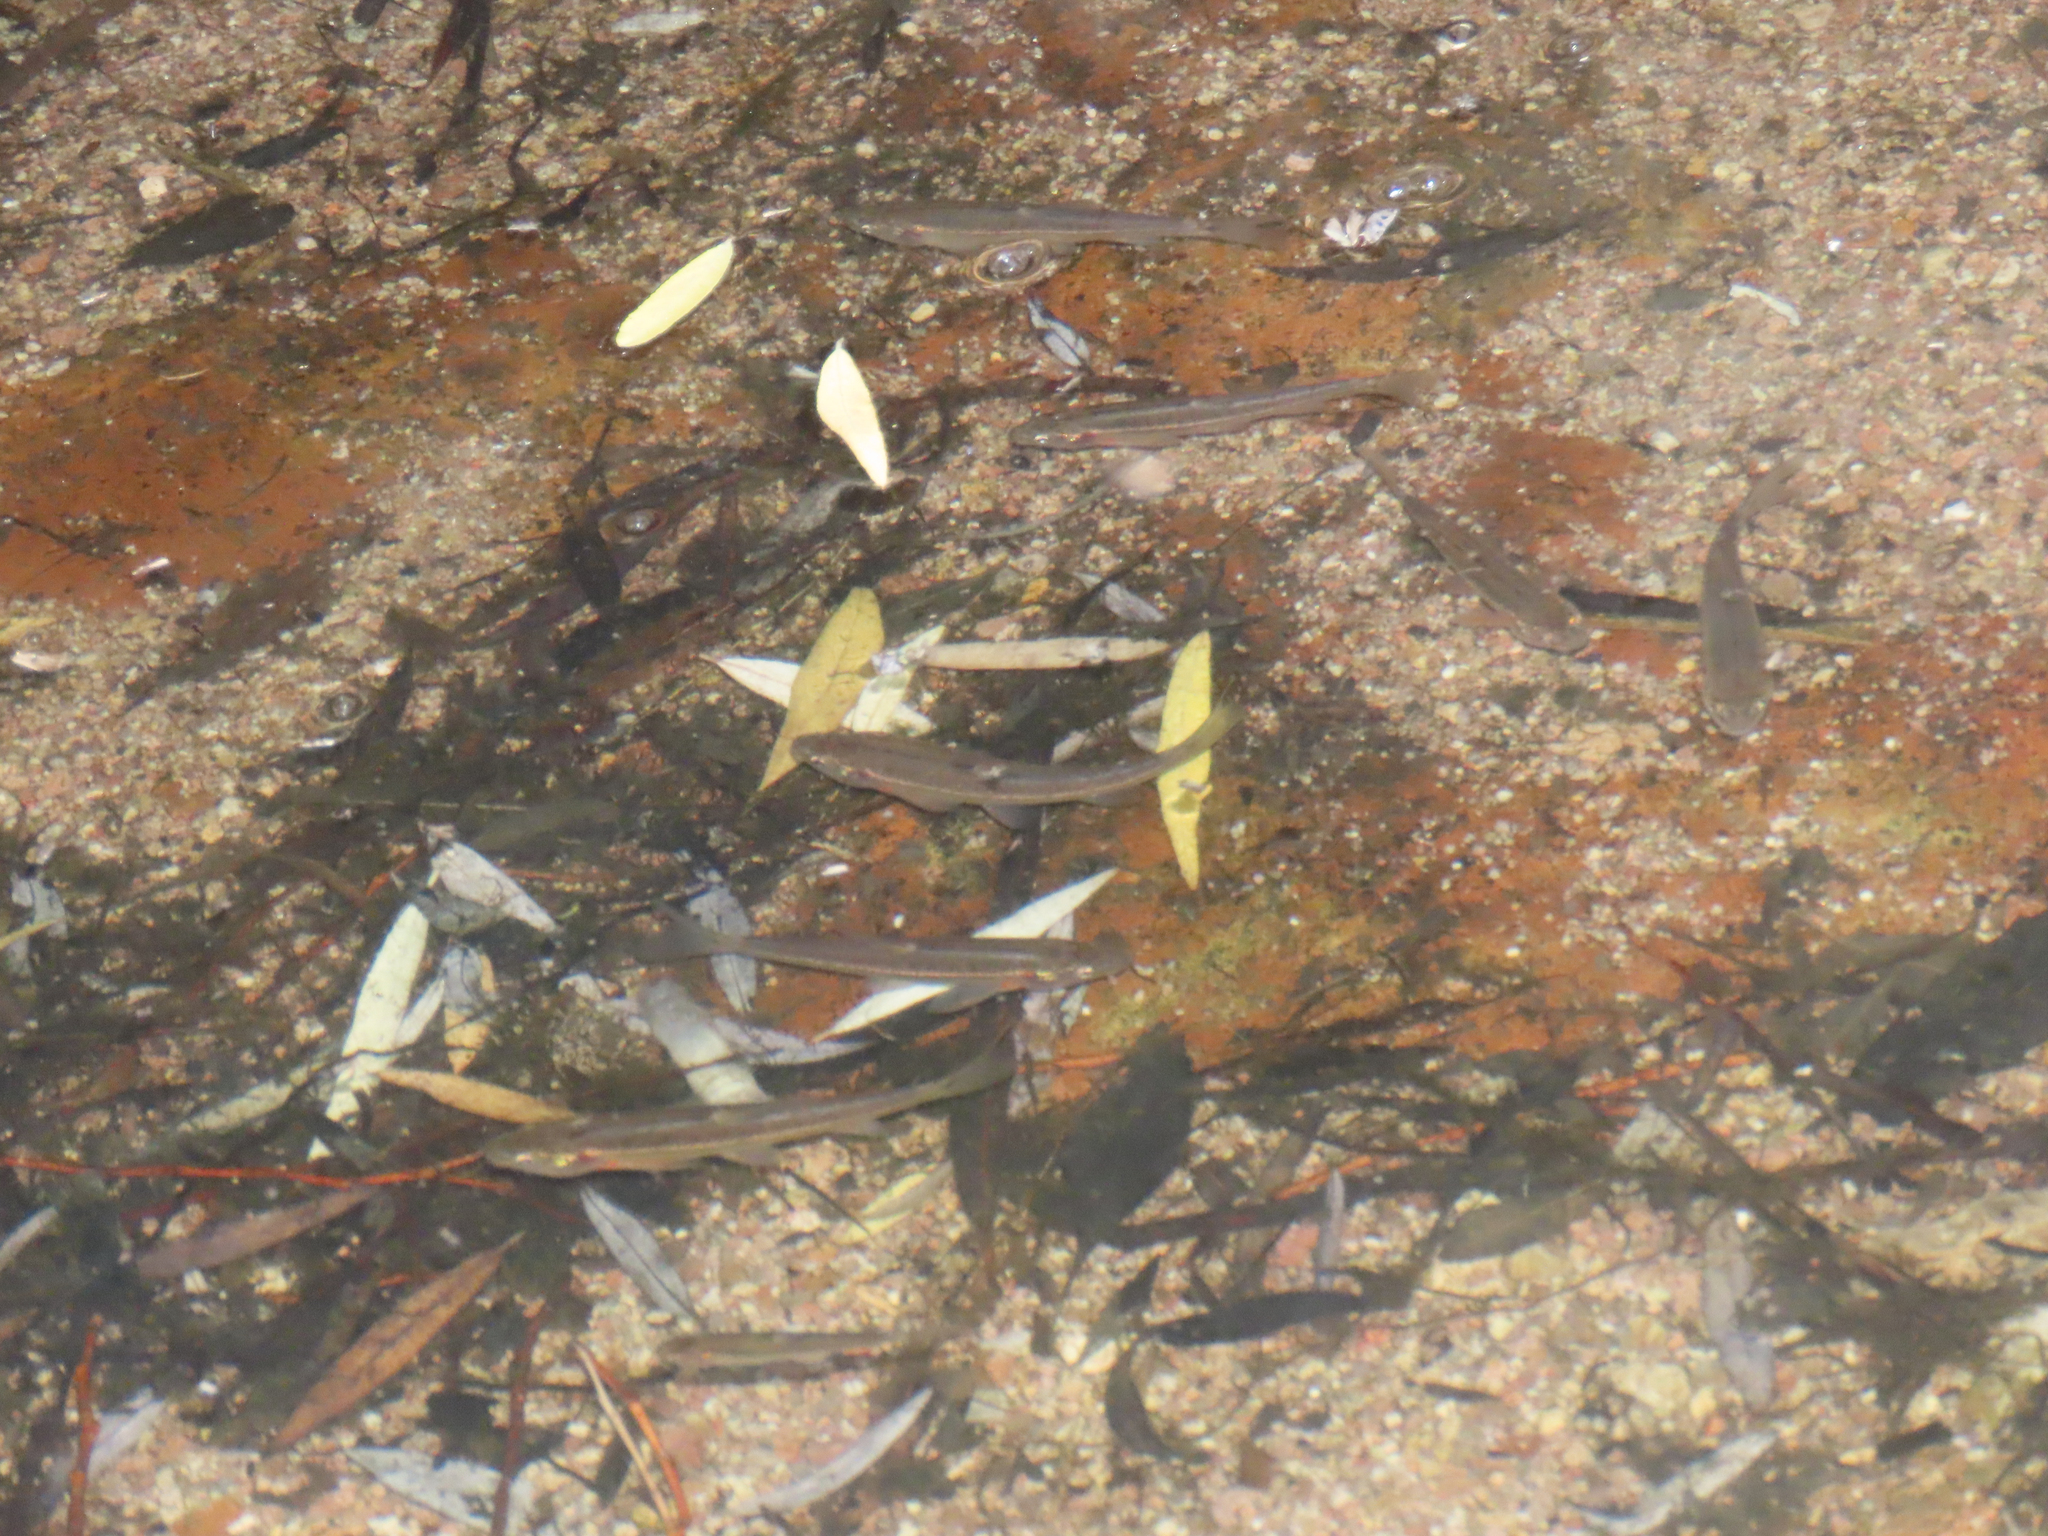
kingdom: Animalia
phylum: Chordata
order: Cypriniformes
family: Cyprinidae
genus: Gila
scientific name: Gila ditaenia
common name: Sonora chub
